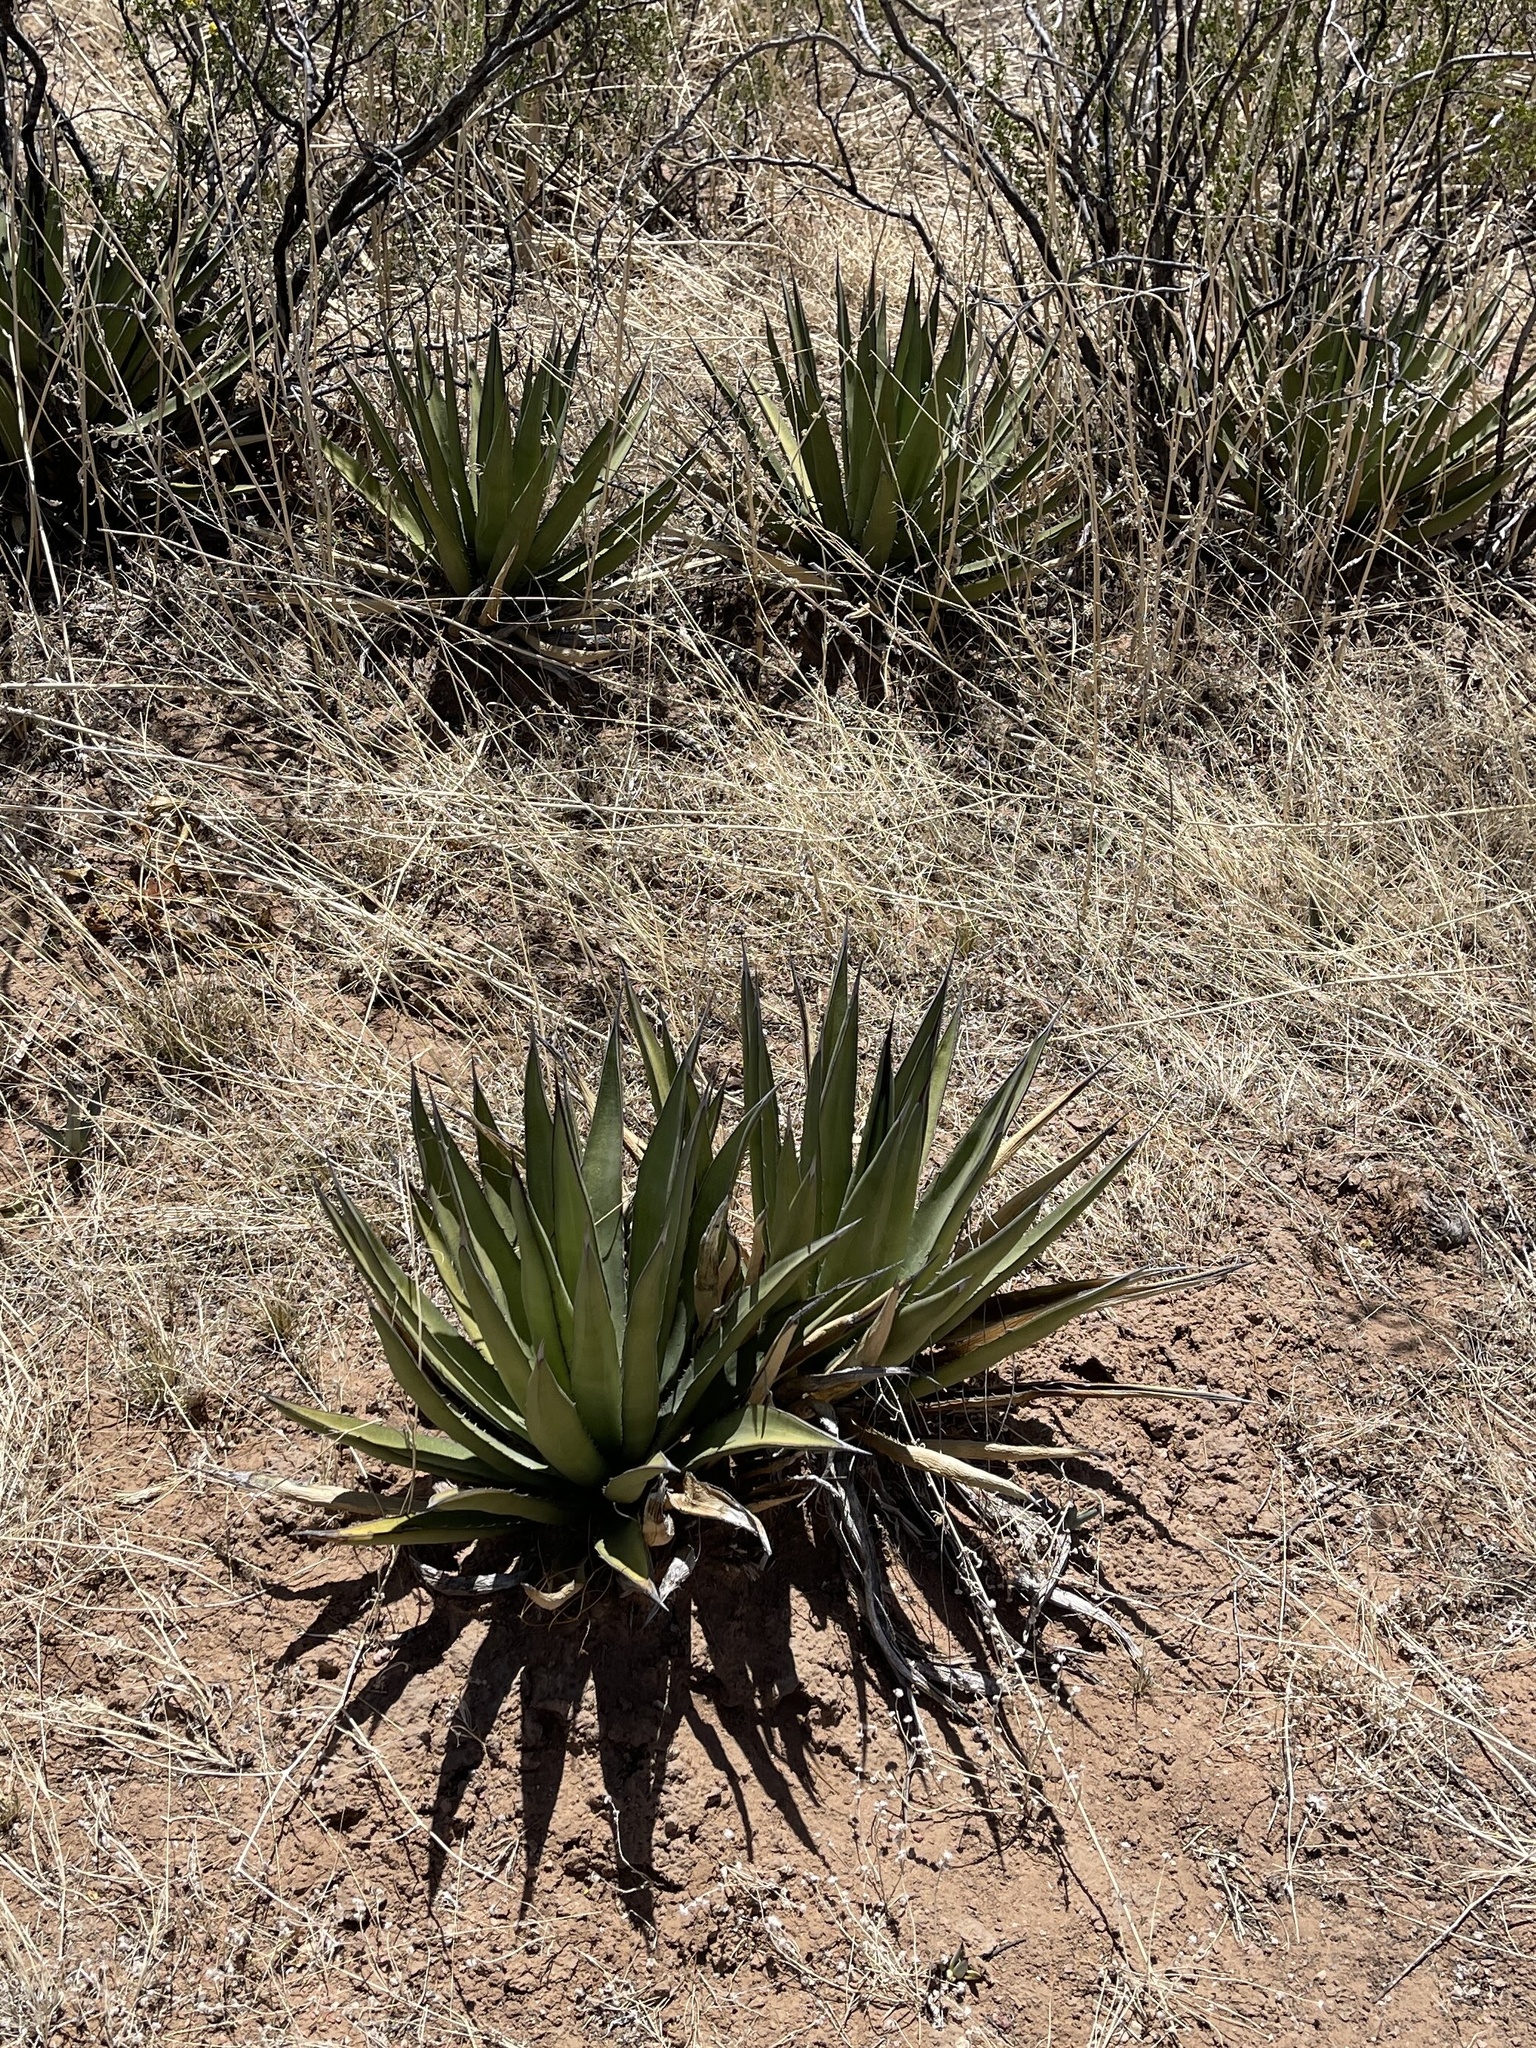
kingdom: Plantae
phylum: Tracheophyta
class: Liliopsida
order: Asparagales
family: Asparagaceae
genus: Agave
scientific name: Agave lechuguilla
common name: Lecheguilla agave
